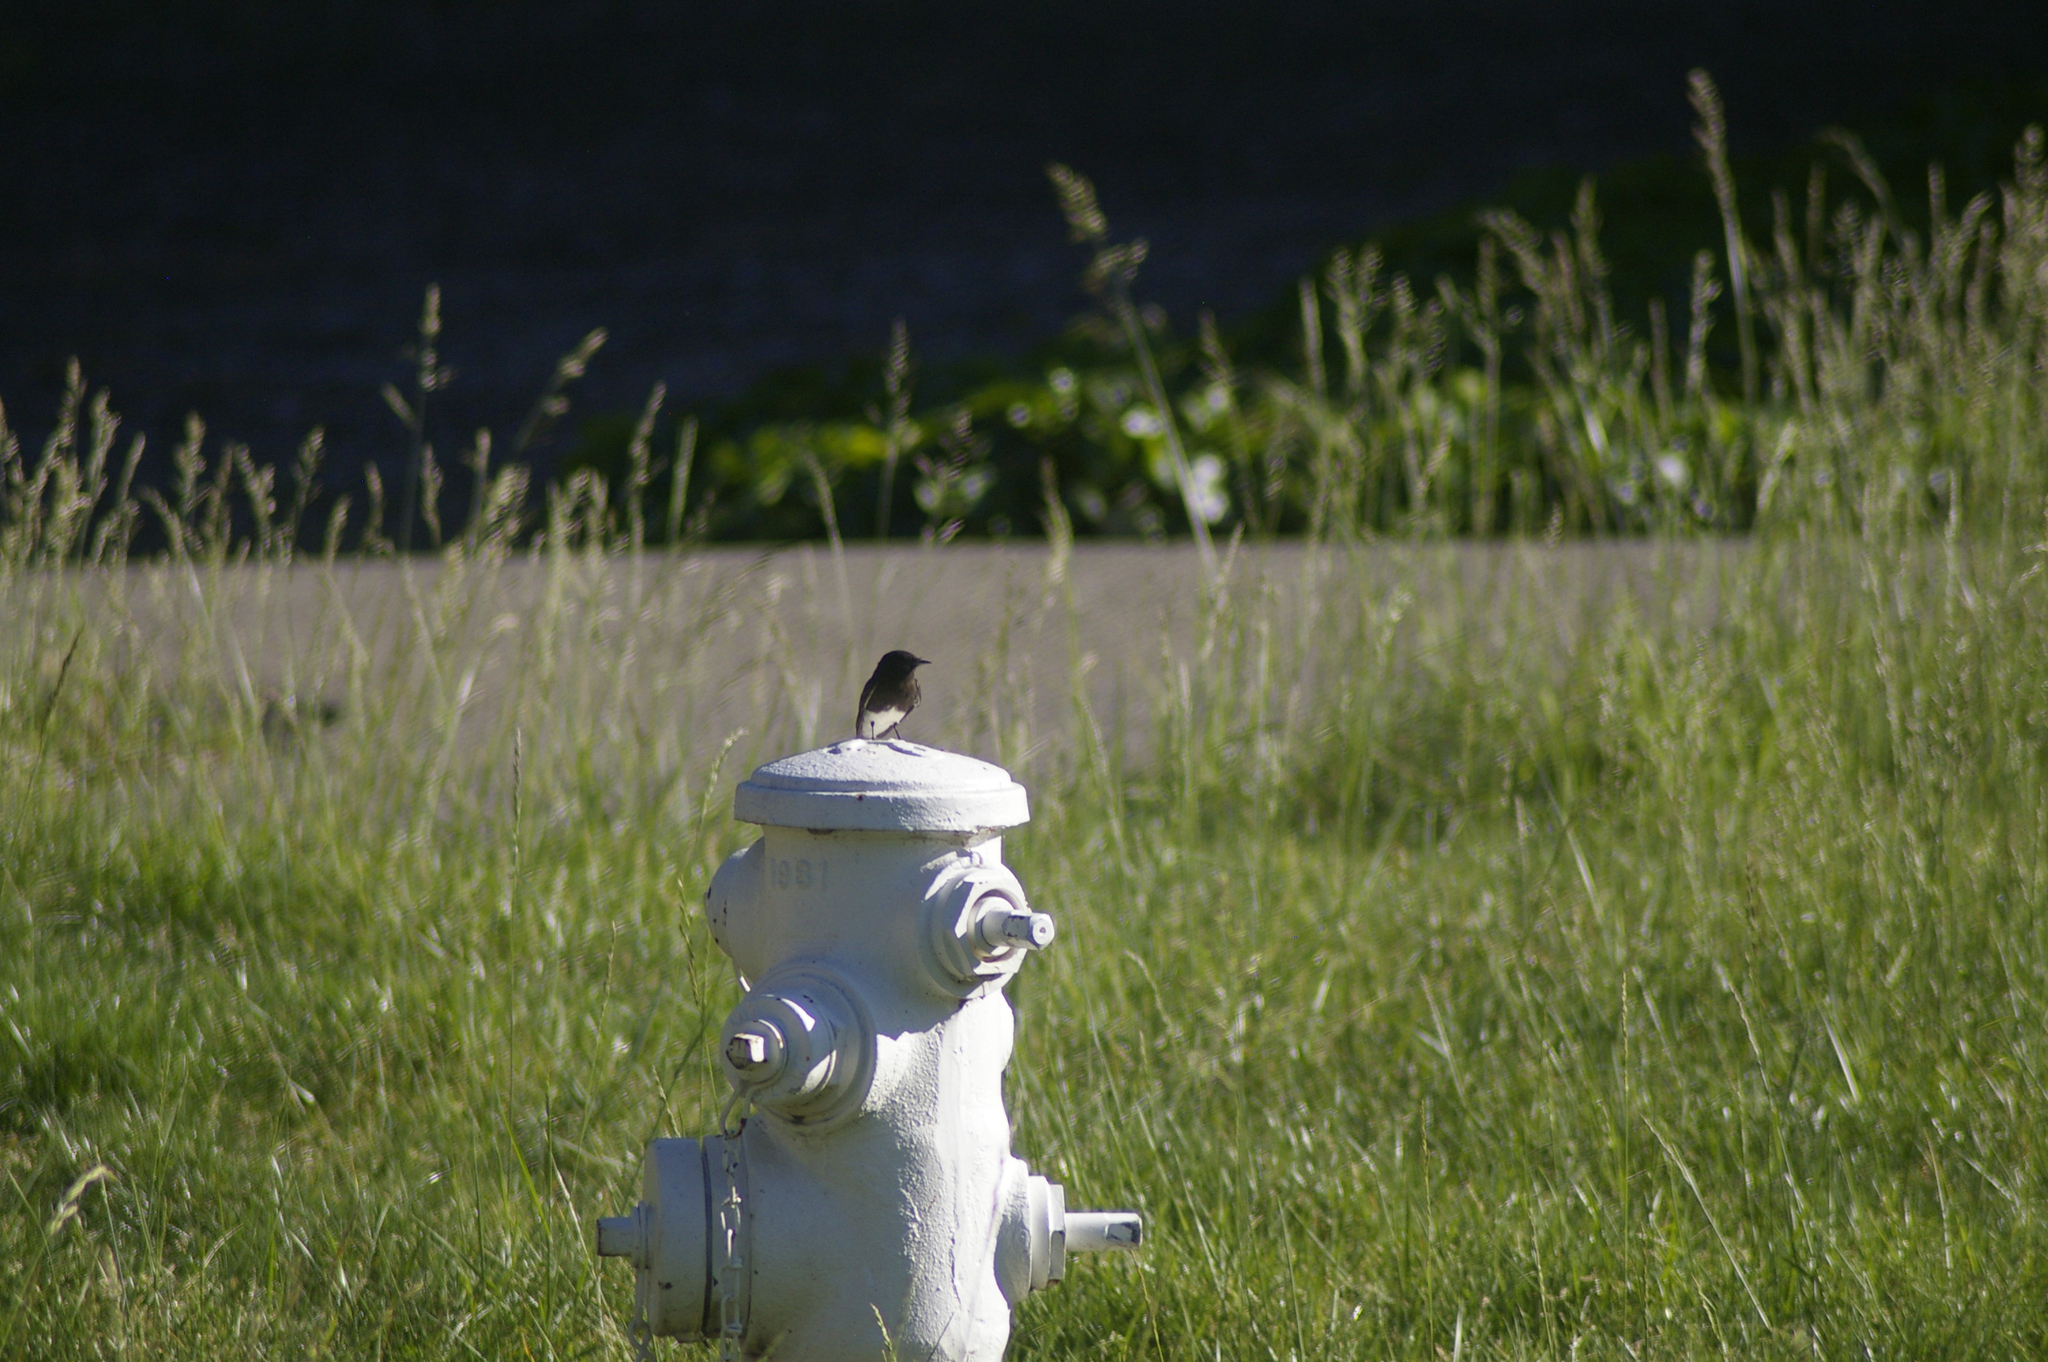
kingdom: Animalia
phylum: Chordata
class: Aves
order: Passeriformes
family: Tyrannidae
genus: Sayornis
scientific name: Sayornis nigricans
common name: Black phoebe
